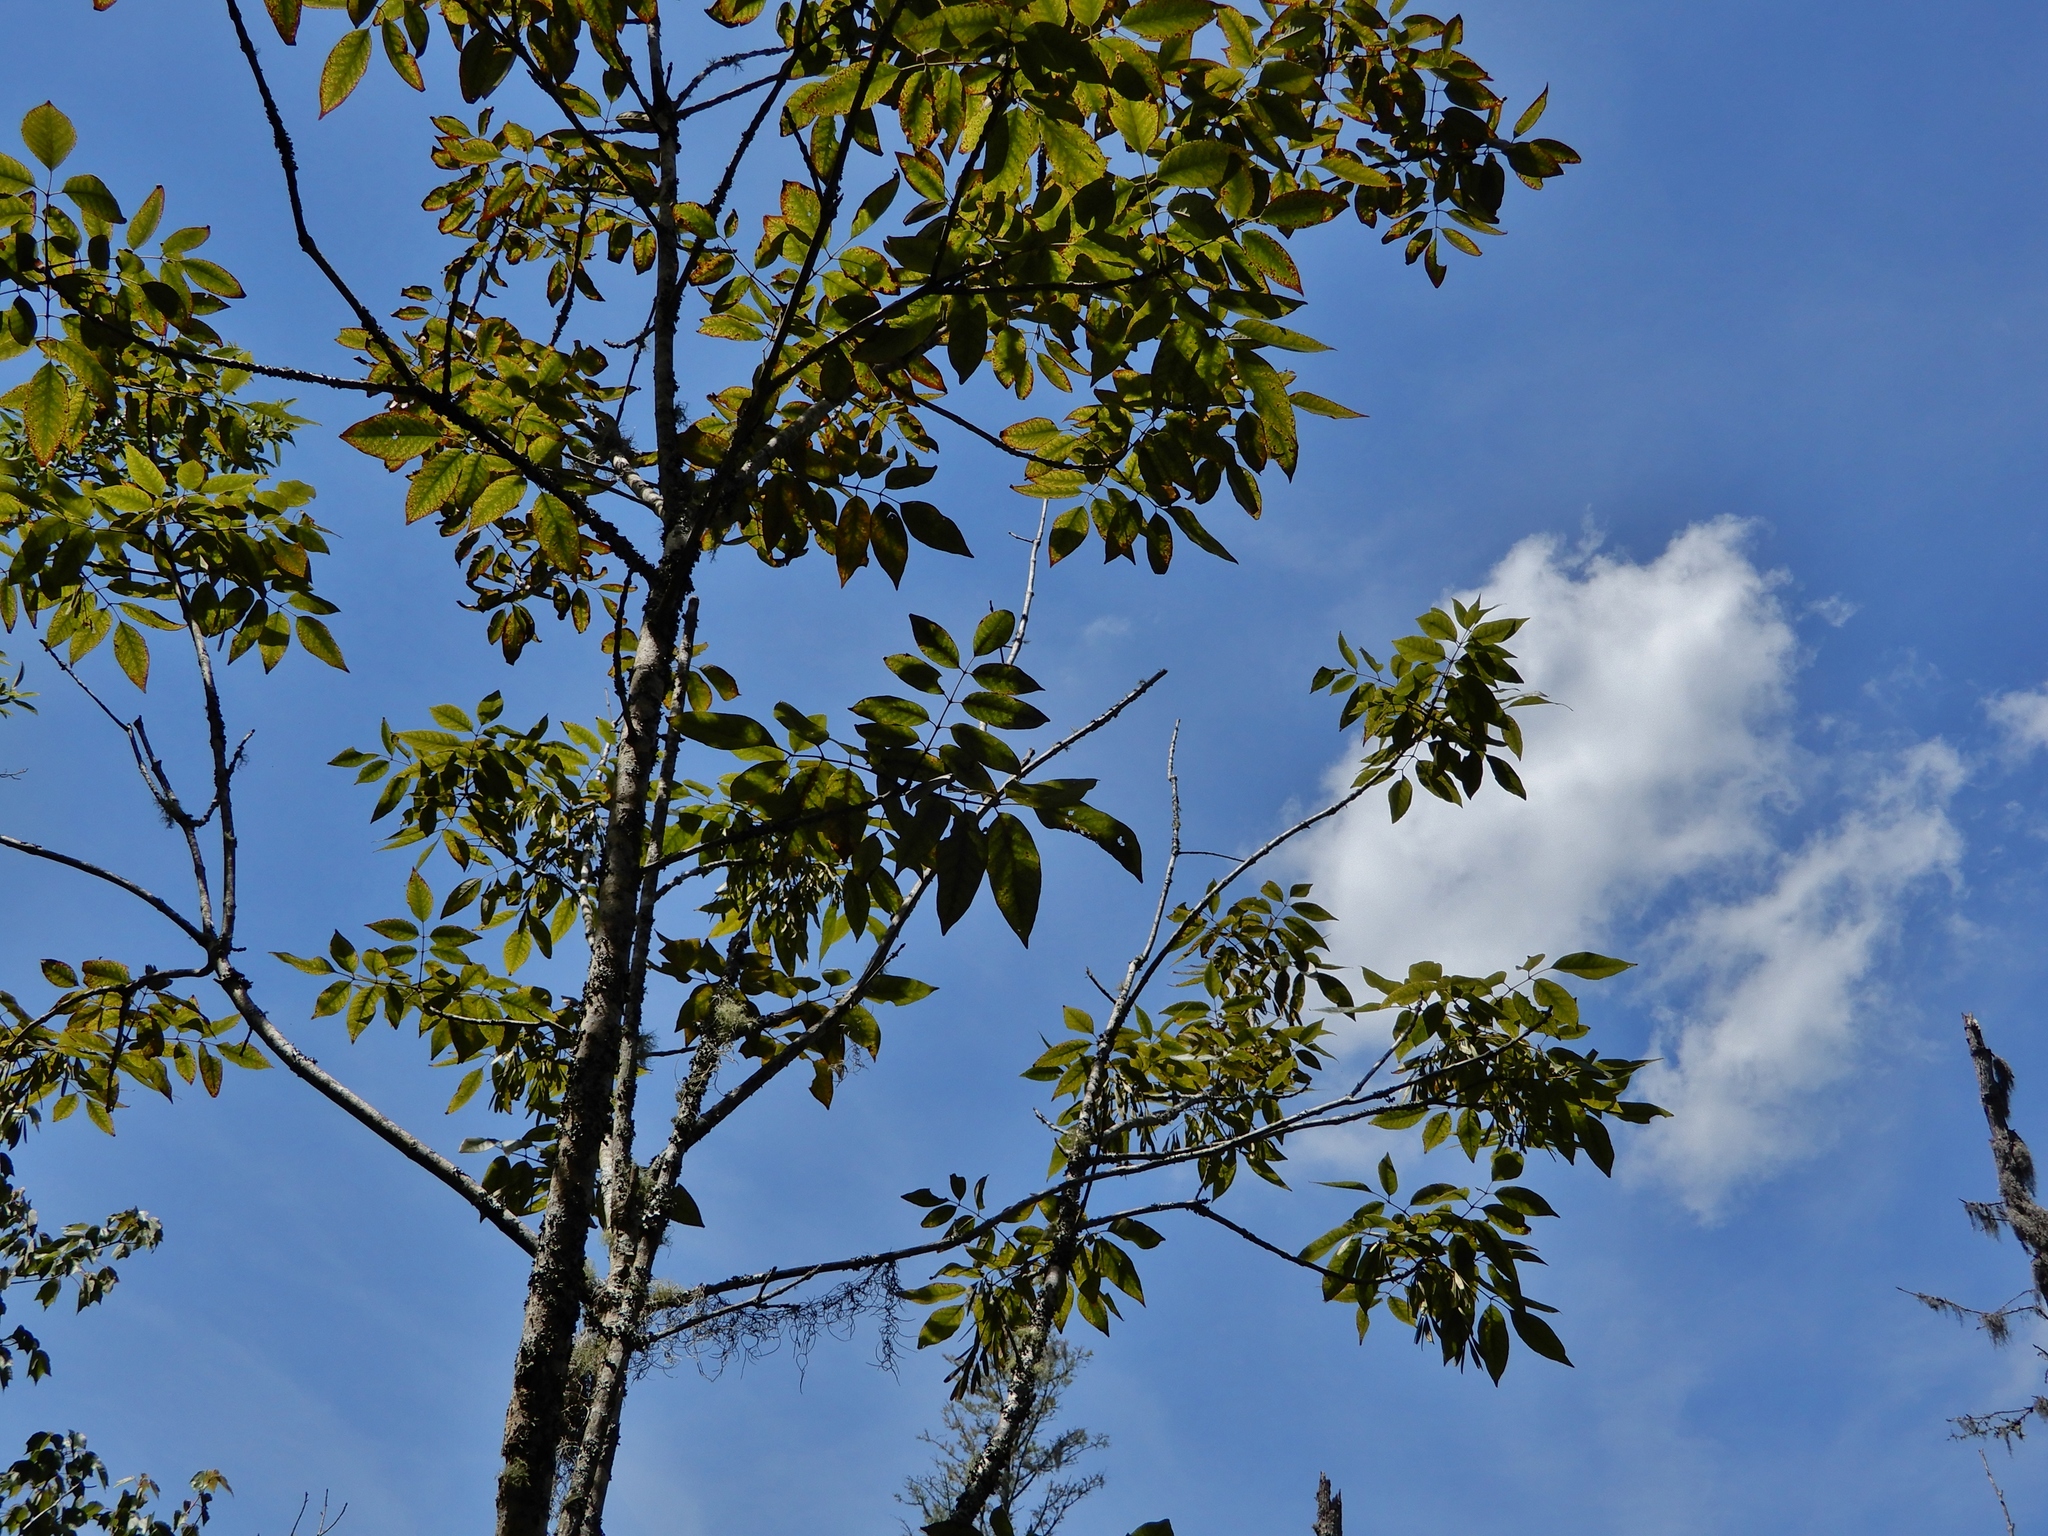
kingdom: Plantae
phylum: Tracheophyta
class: Magnoliopsida
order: Lamiales
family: Oleaceae
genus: Fraxinus
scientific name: Fraxinus pennsylvanica
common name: Green ash
